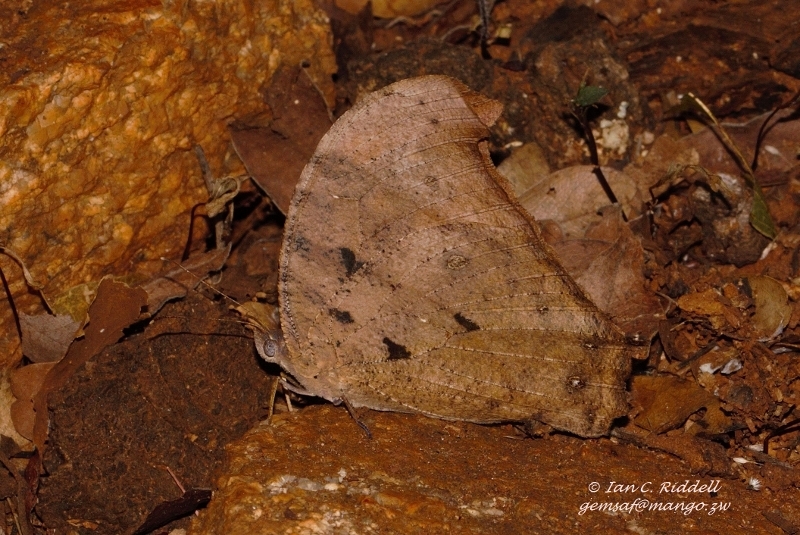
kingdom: Animalia
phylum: Arthropoda
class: Insecta
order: Lepidoptera
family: Nymphalidae
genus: Melanitis
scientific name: Melanitis leda
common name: Twilight brown
